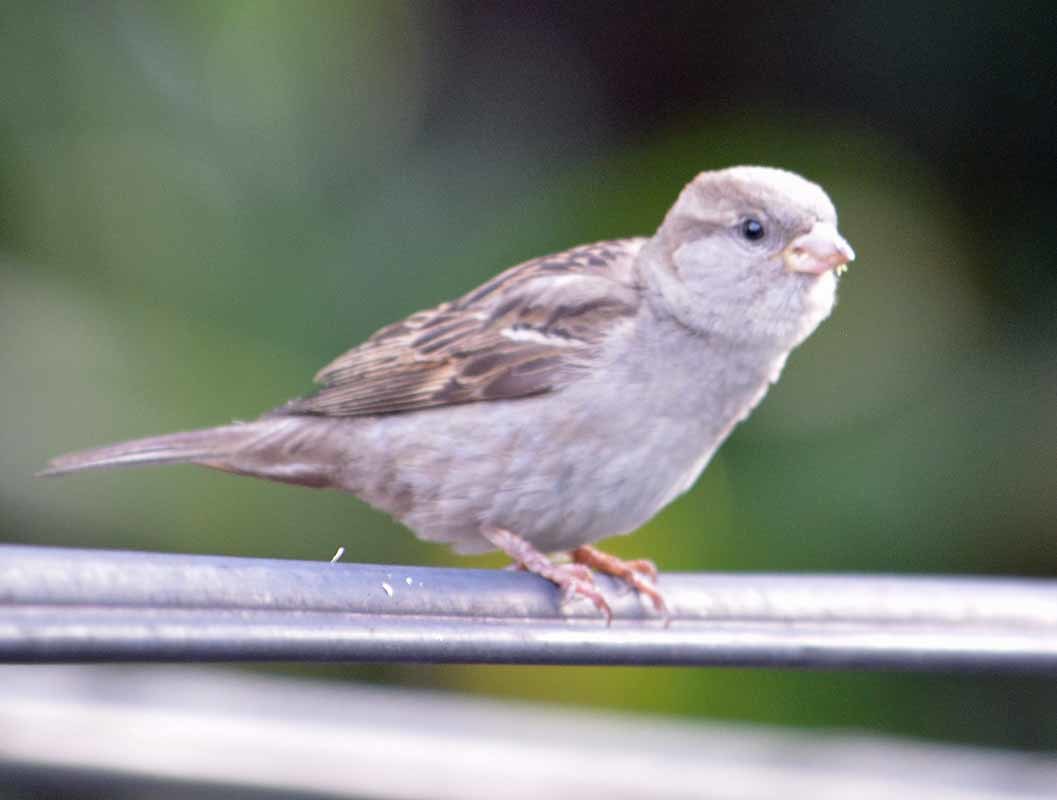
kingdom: Animalia
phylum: Chordata
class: Aves
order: Passeriformes
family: Passeridae
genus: Passer
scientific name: Passer domesticus
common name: House sparrow
